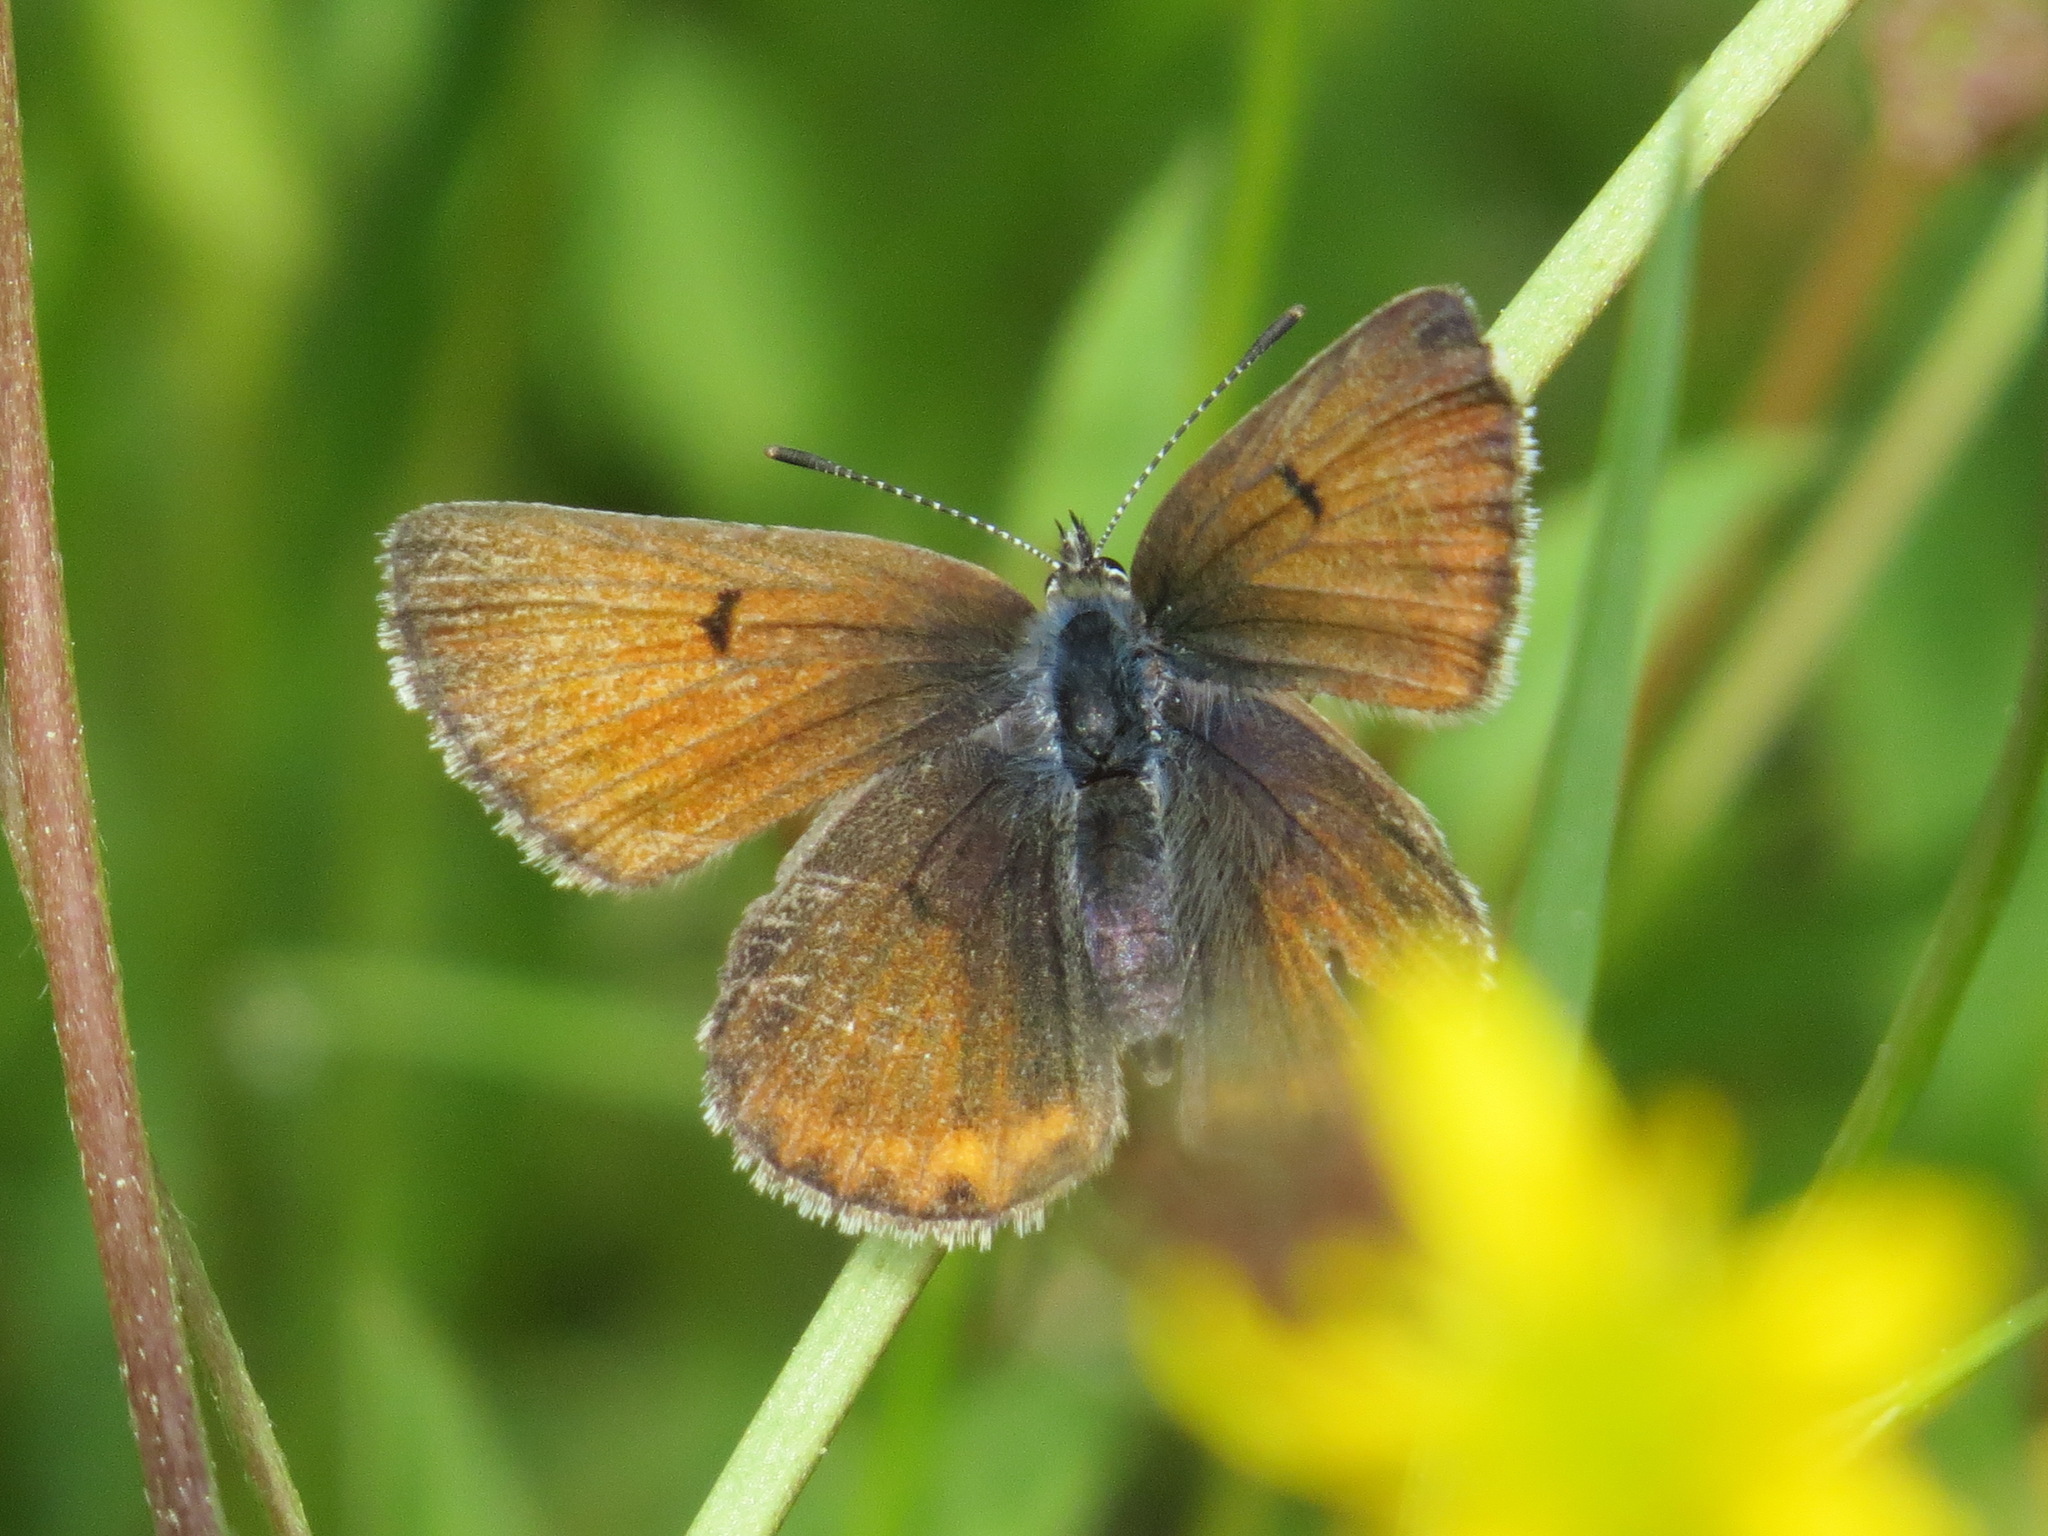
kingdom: Animalia
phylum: Arthropoda
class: Insecta
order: Lepidoptera
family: Lycaenidae
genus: Icaricia
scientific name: Icaricia saepiolus
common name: Greenish blue
